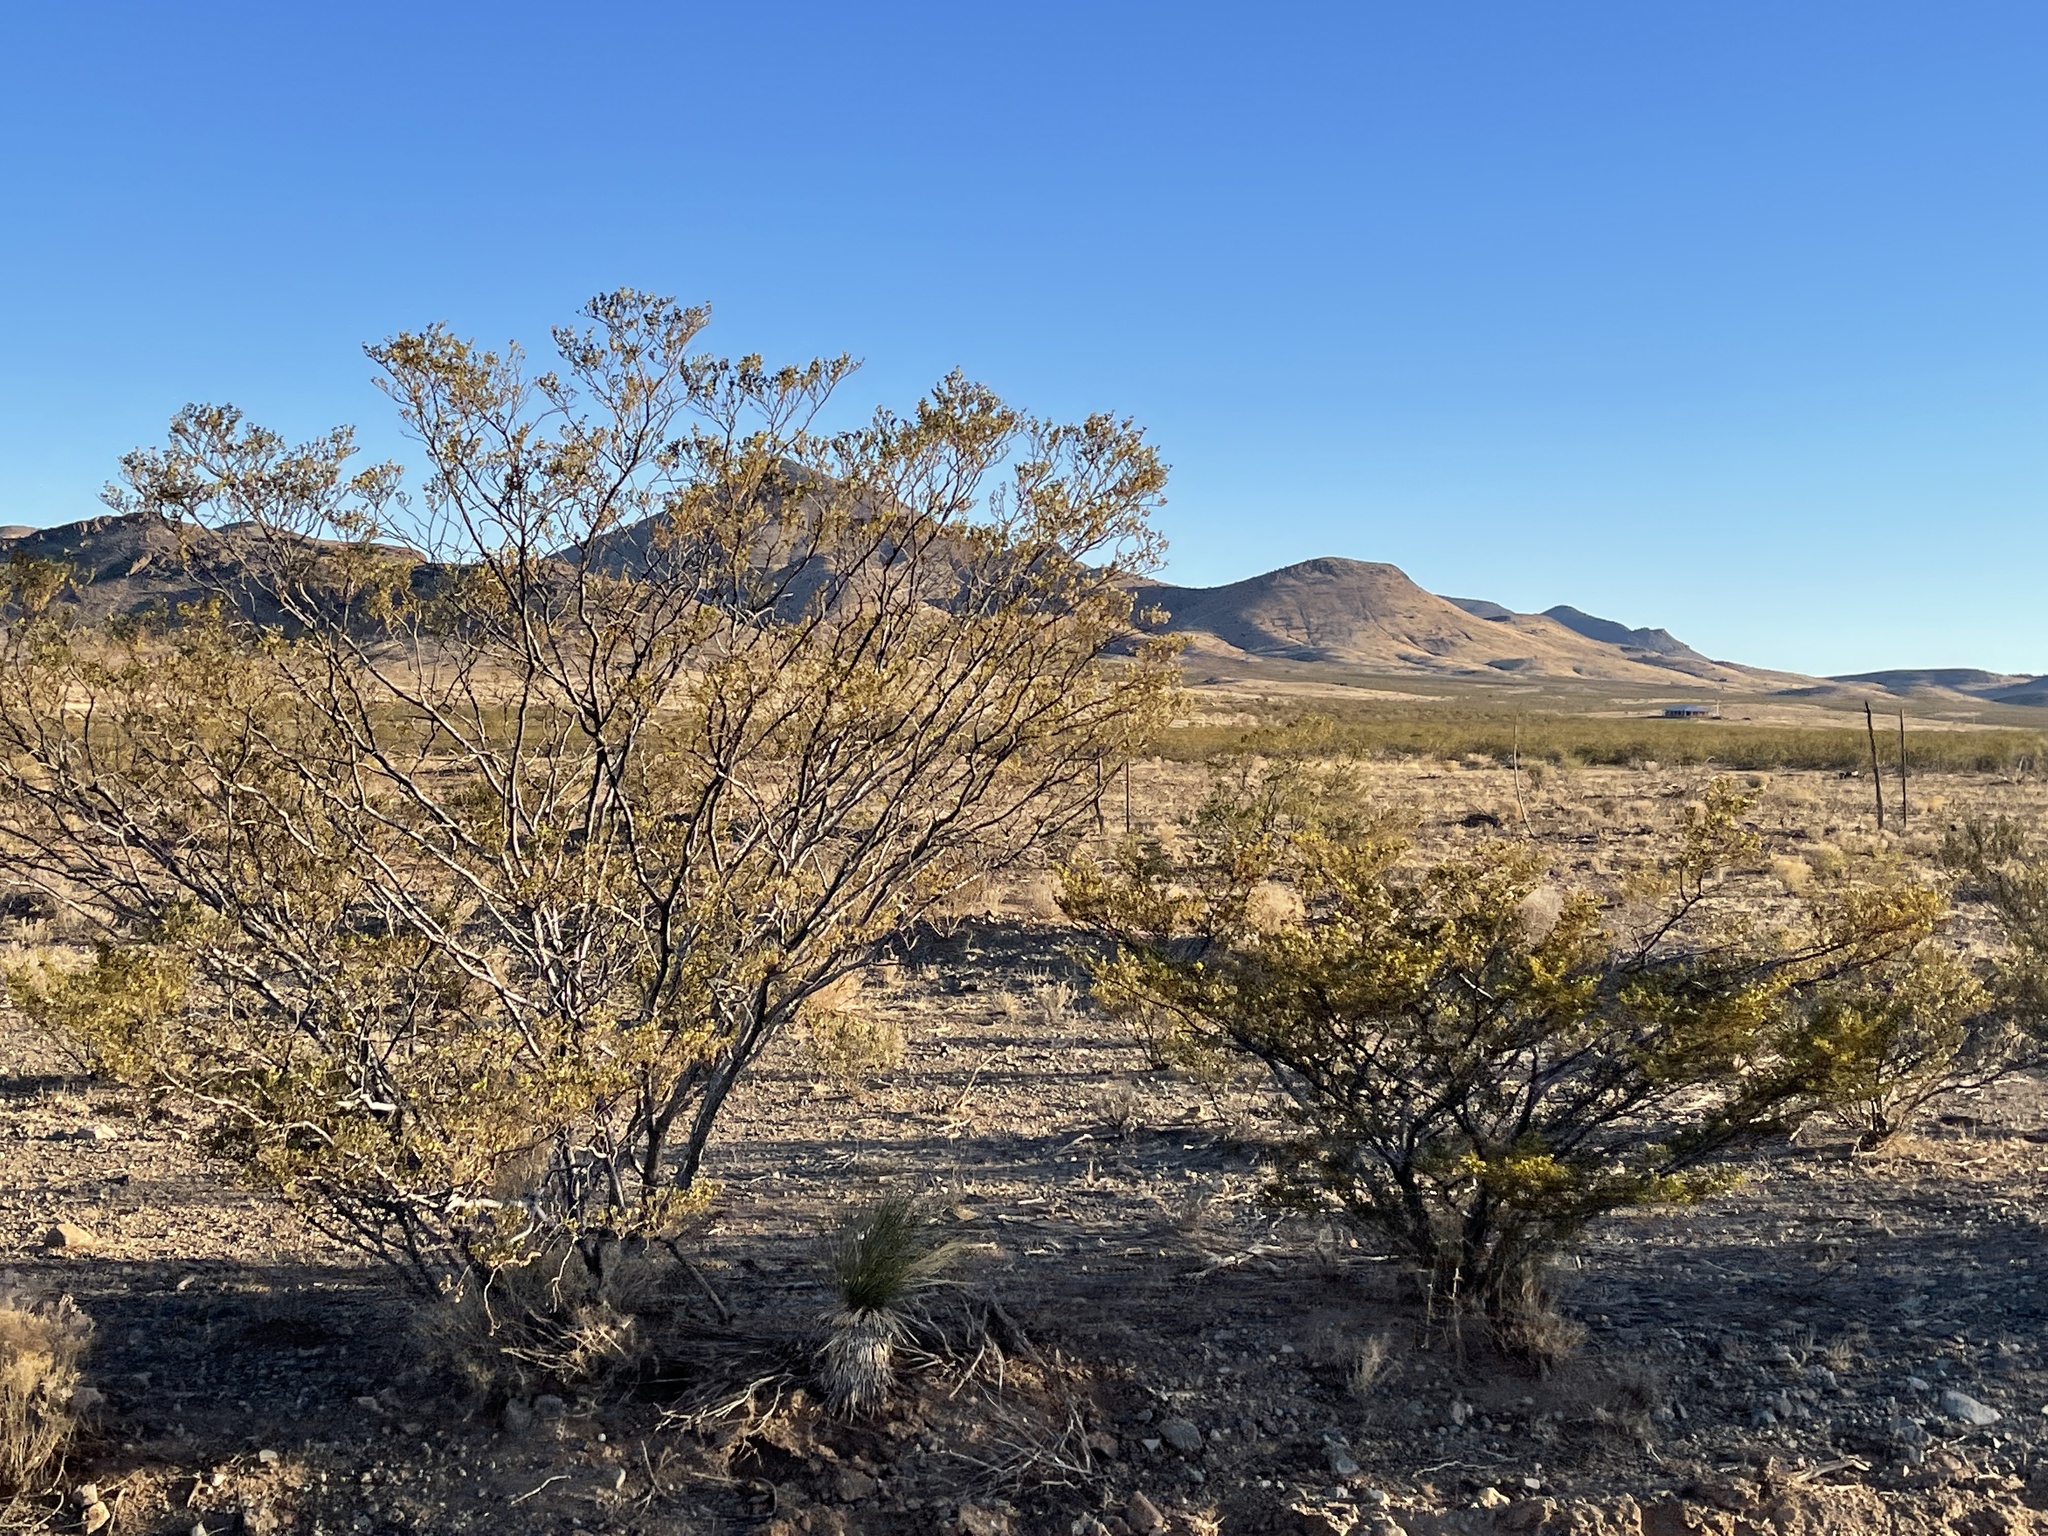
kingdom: Plantae
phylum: Tracheophyta
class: Magnoliopsida
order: Zygophyllales
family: Zygophyllaceae
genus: Larrea
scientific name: Larrea tridentata
